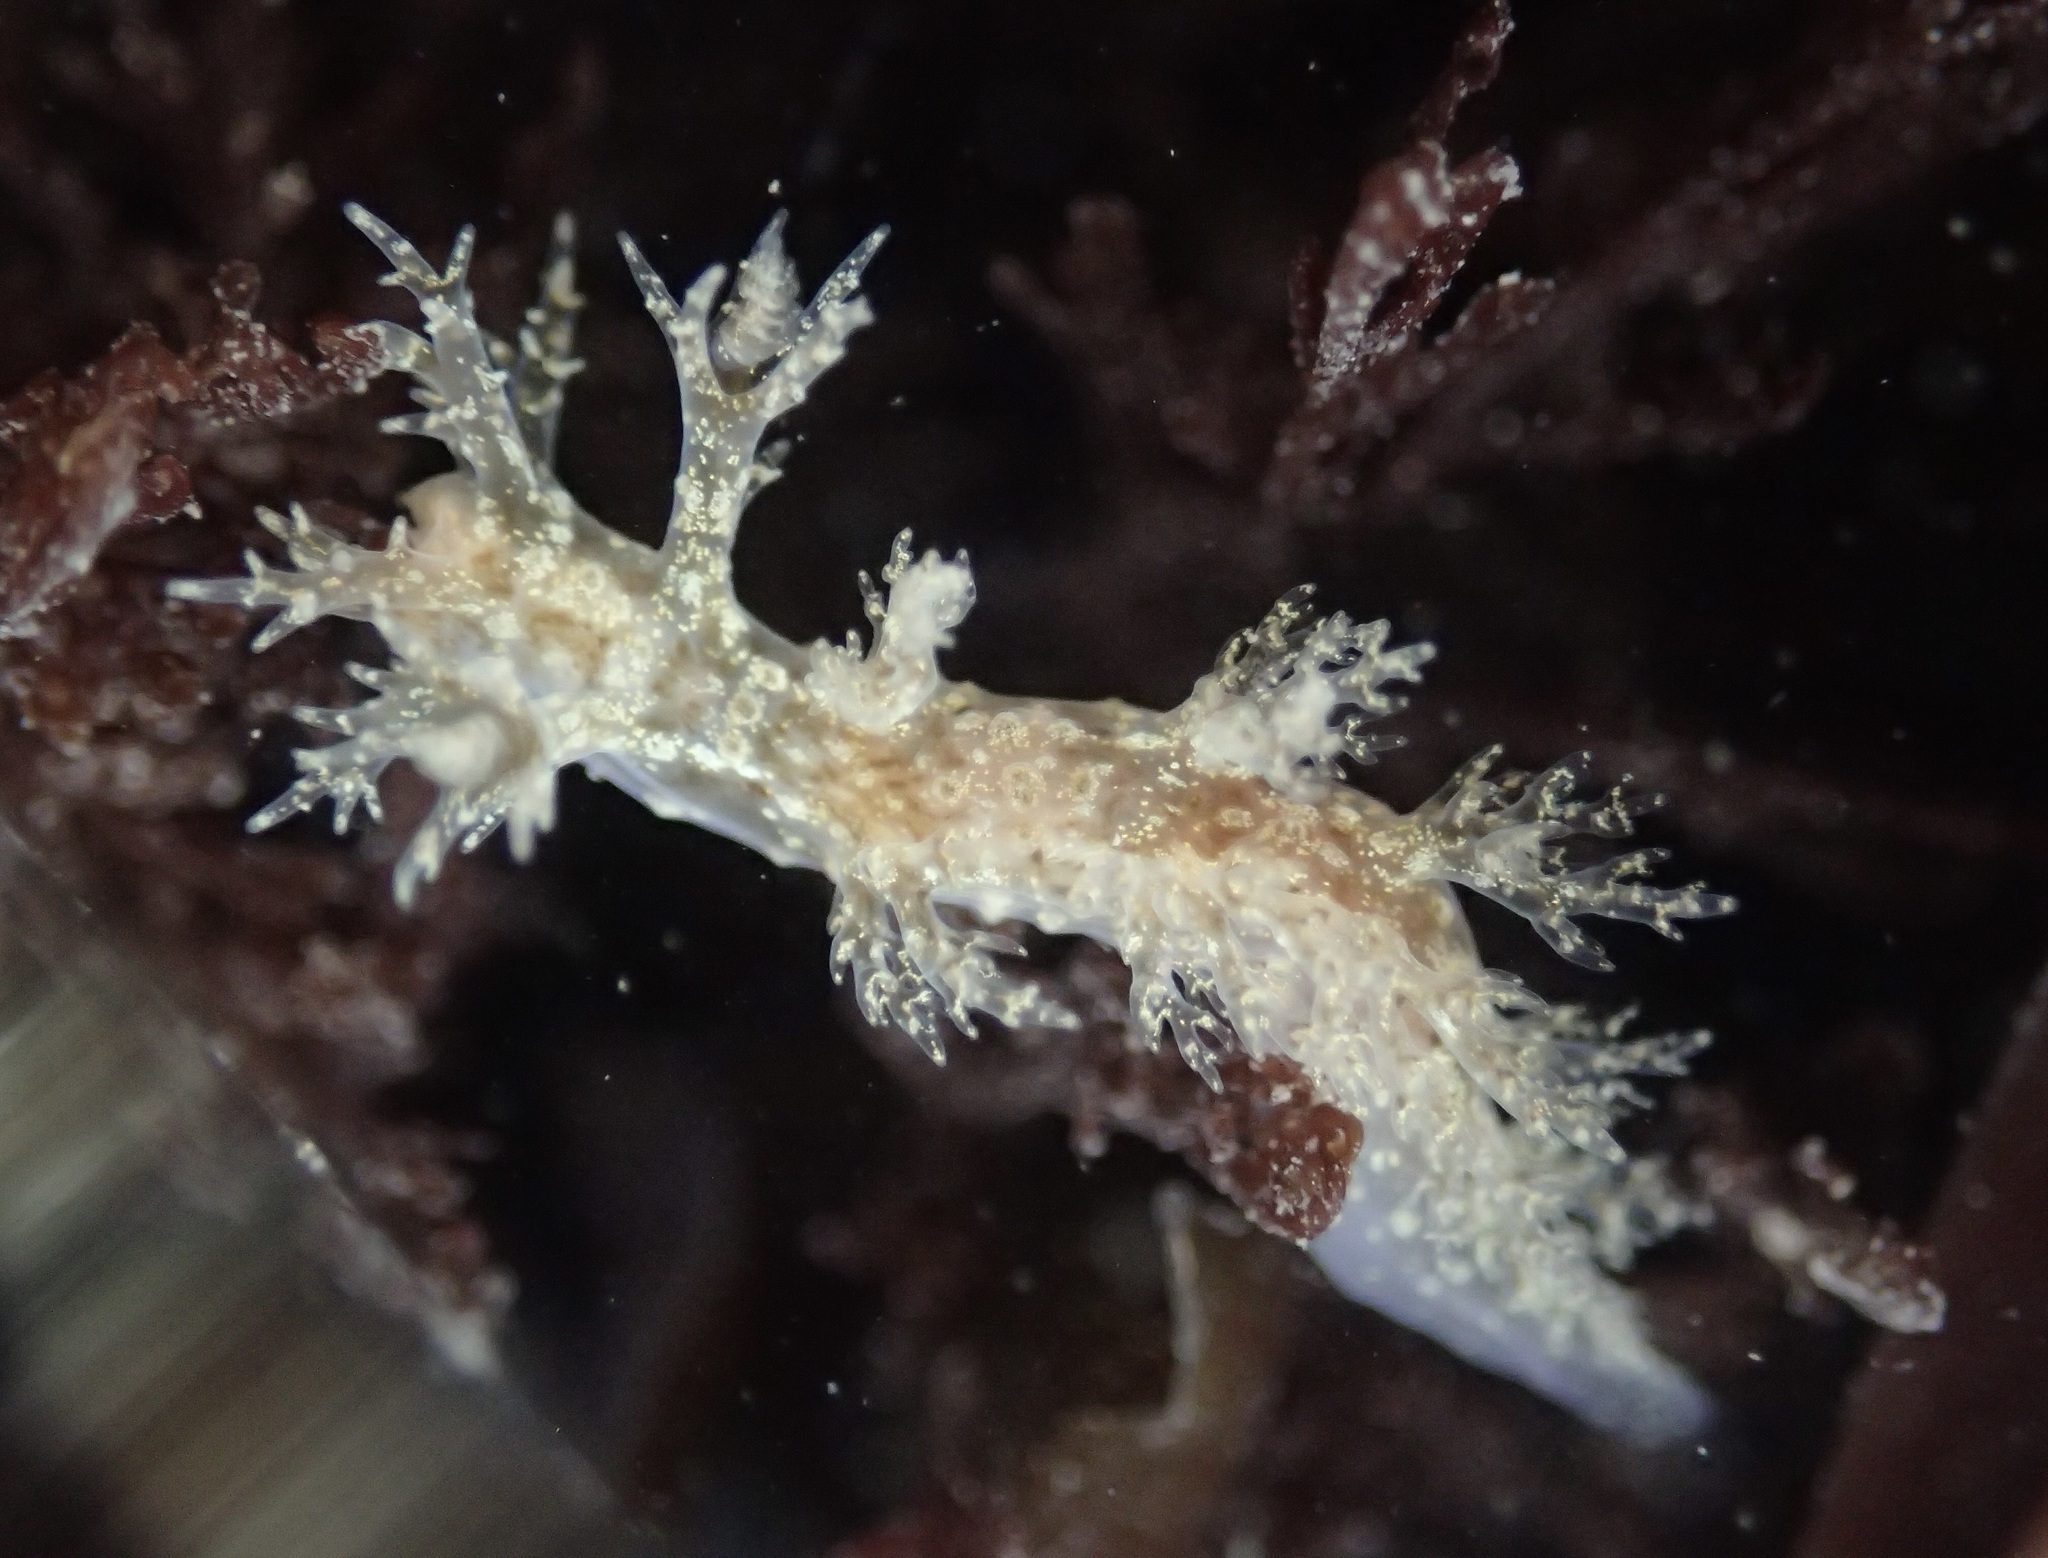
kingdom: Animalia
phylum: Mollusca
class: Gastropoda
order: Nudibranchia
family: Dendronotidae
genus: Dendronotus
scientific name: Dendronotus venustus
